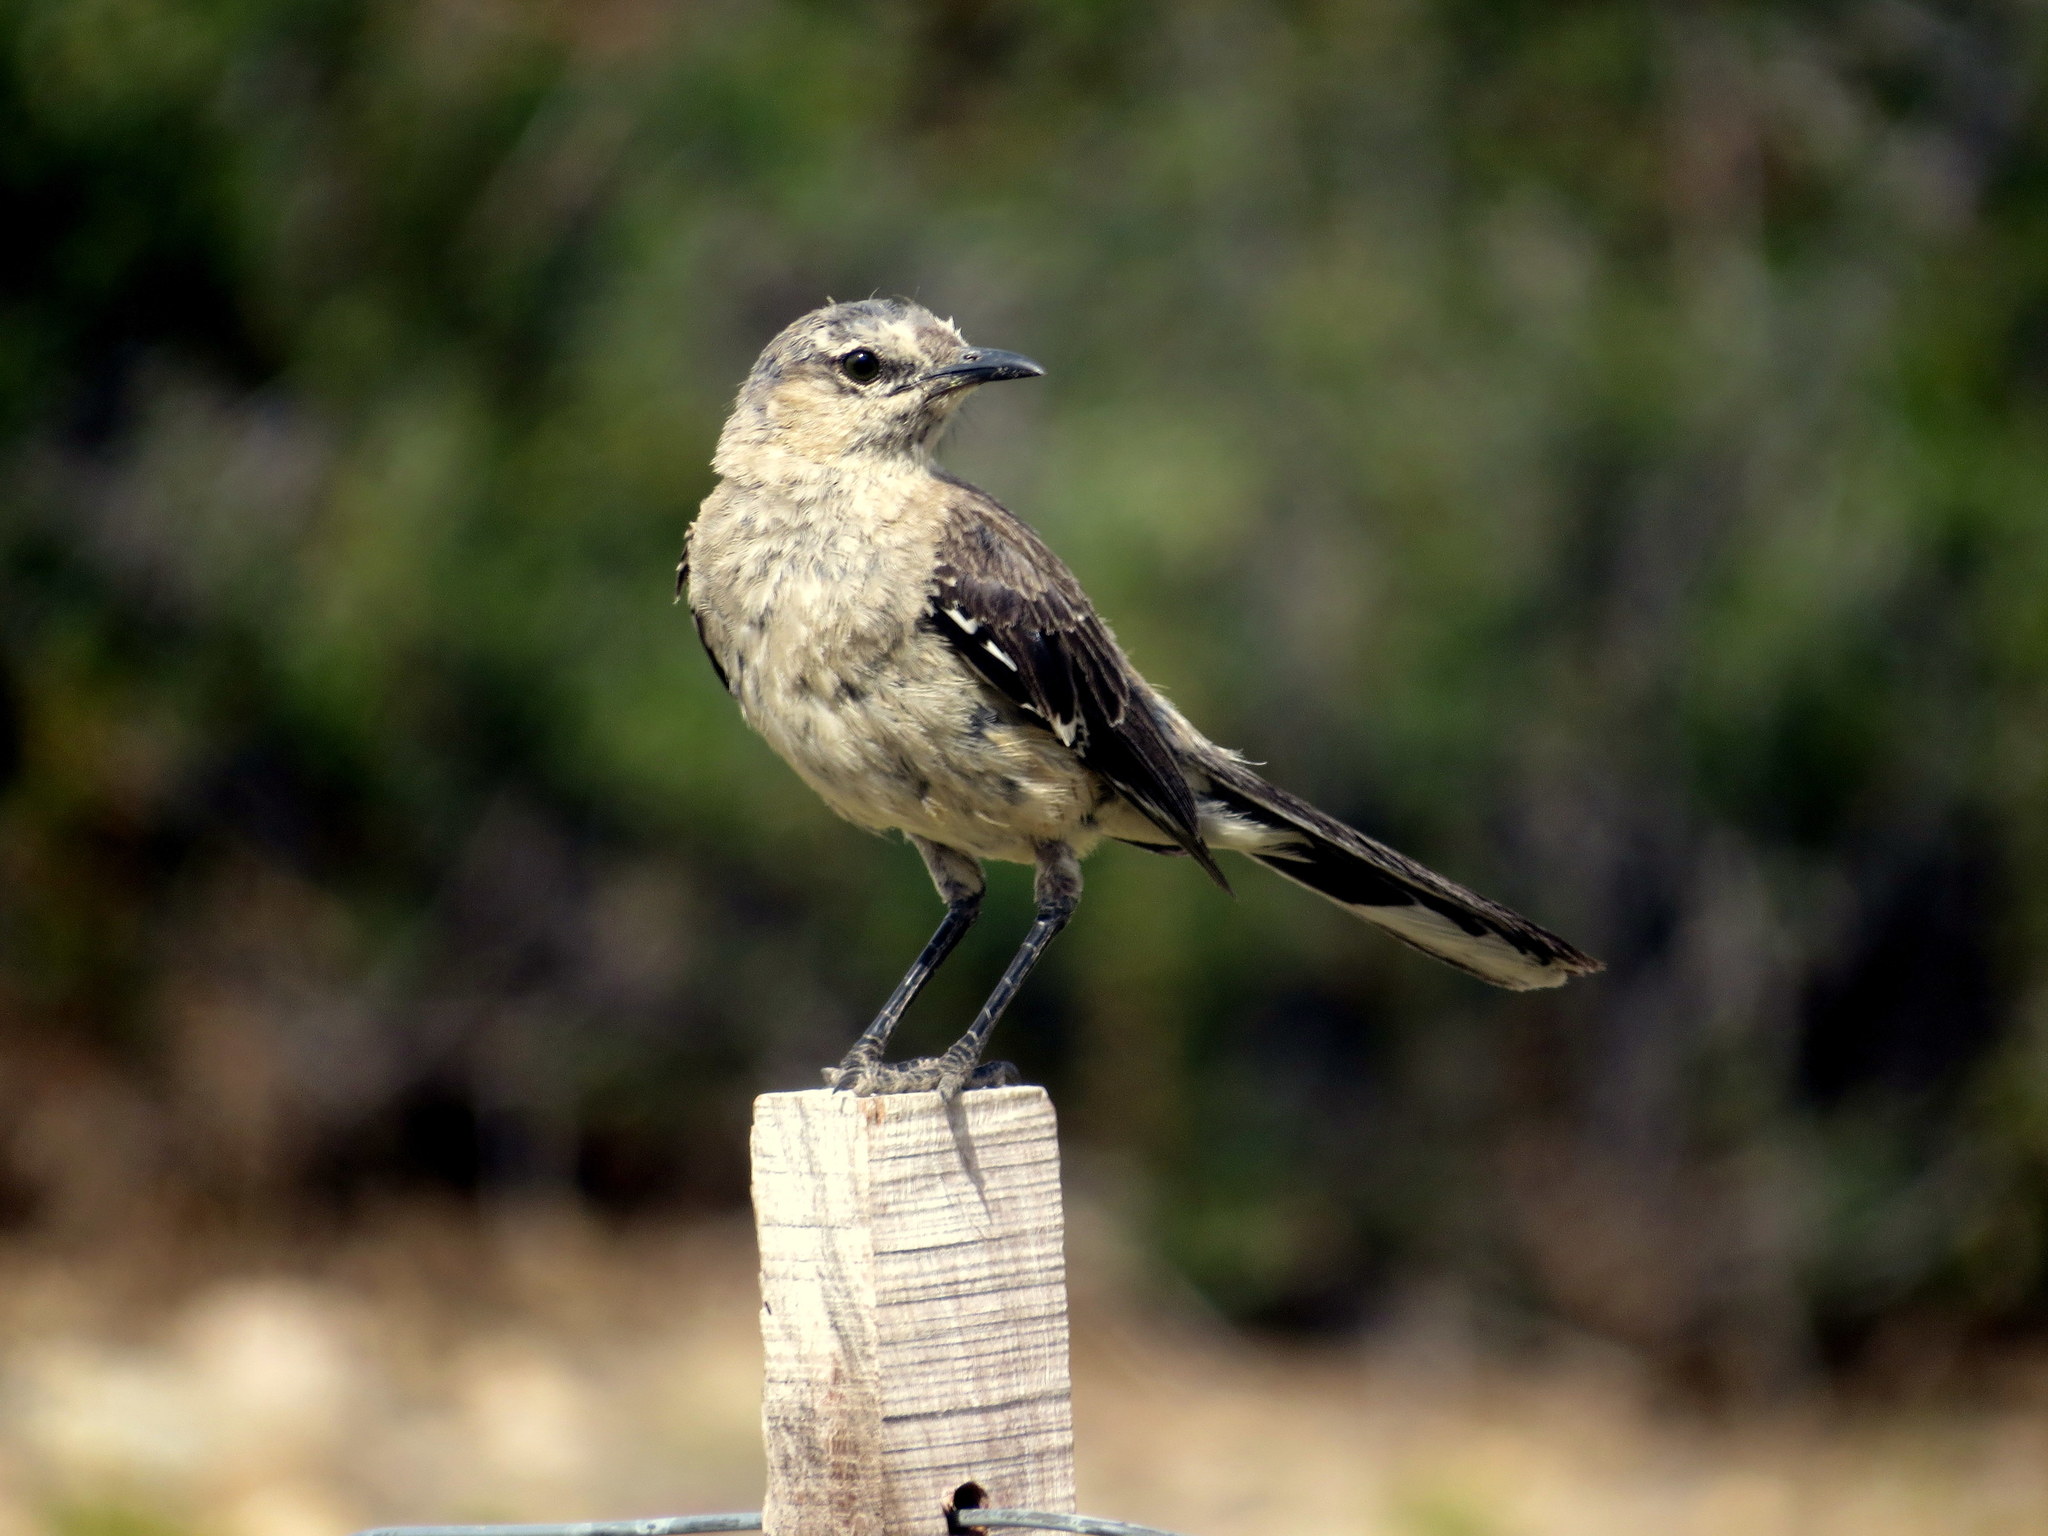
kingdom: Animalia
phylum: Chordata
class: Aves
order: Passeriformes
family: Mimidae
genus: Mimus
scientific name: Mimus patagonicus
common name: Patagonian mockingbird
